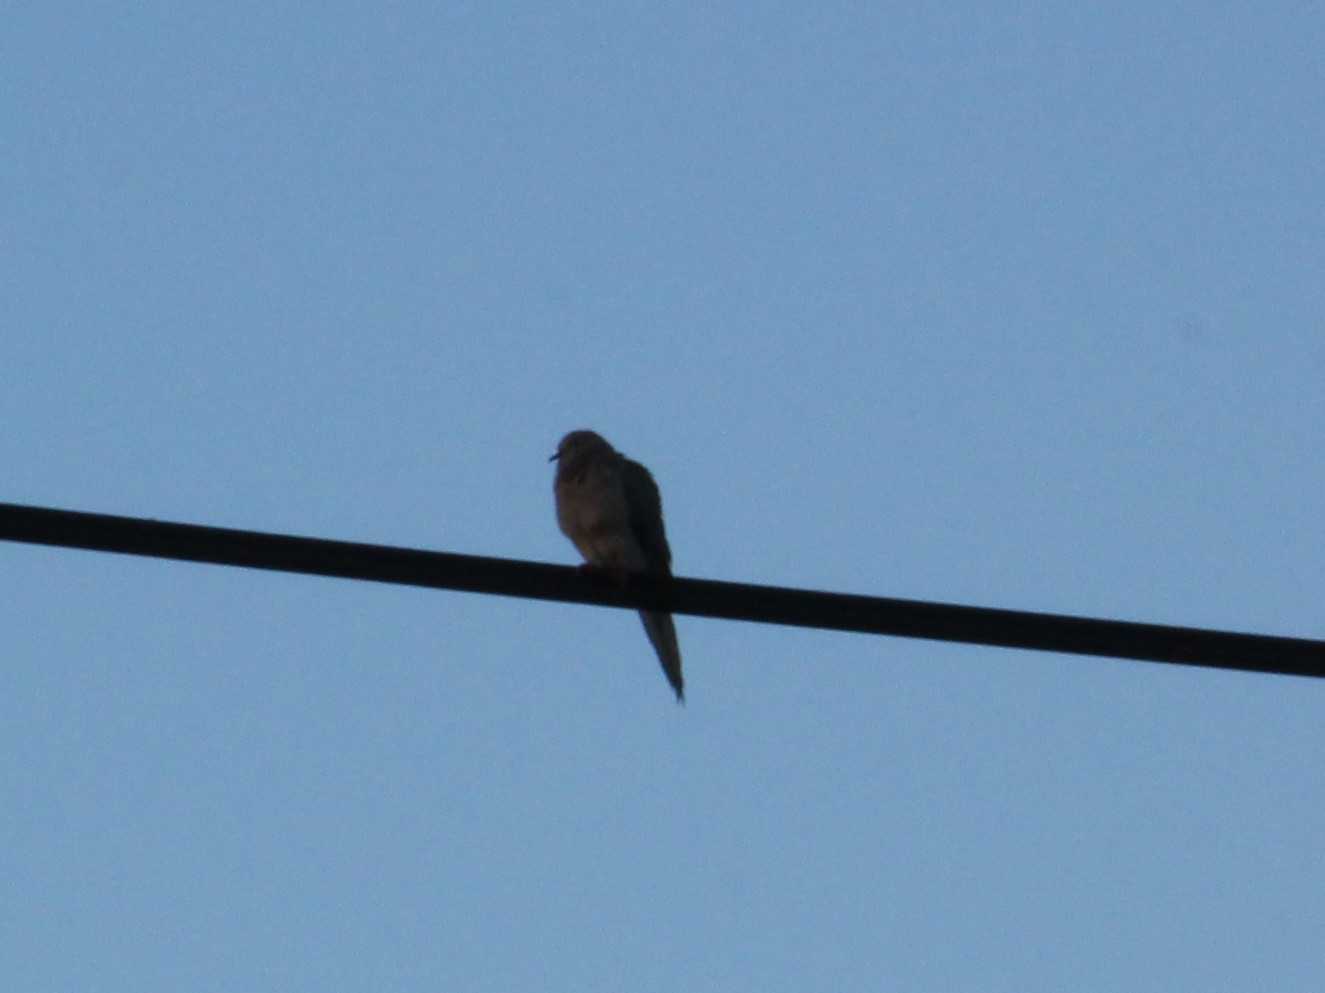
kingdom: Animalia
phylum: Chordata
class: Aves
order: Columbiformes
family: Columbidae
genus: Zenaida
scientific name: Zenaida macroura
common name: Mourning dove
